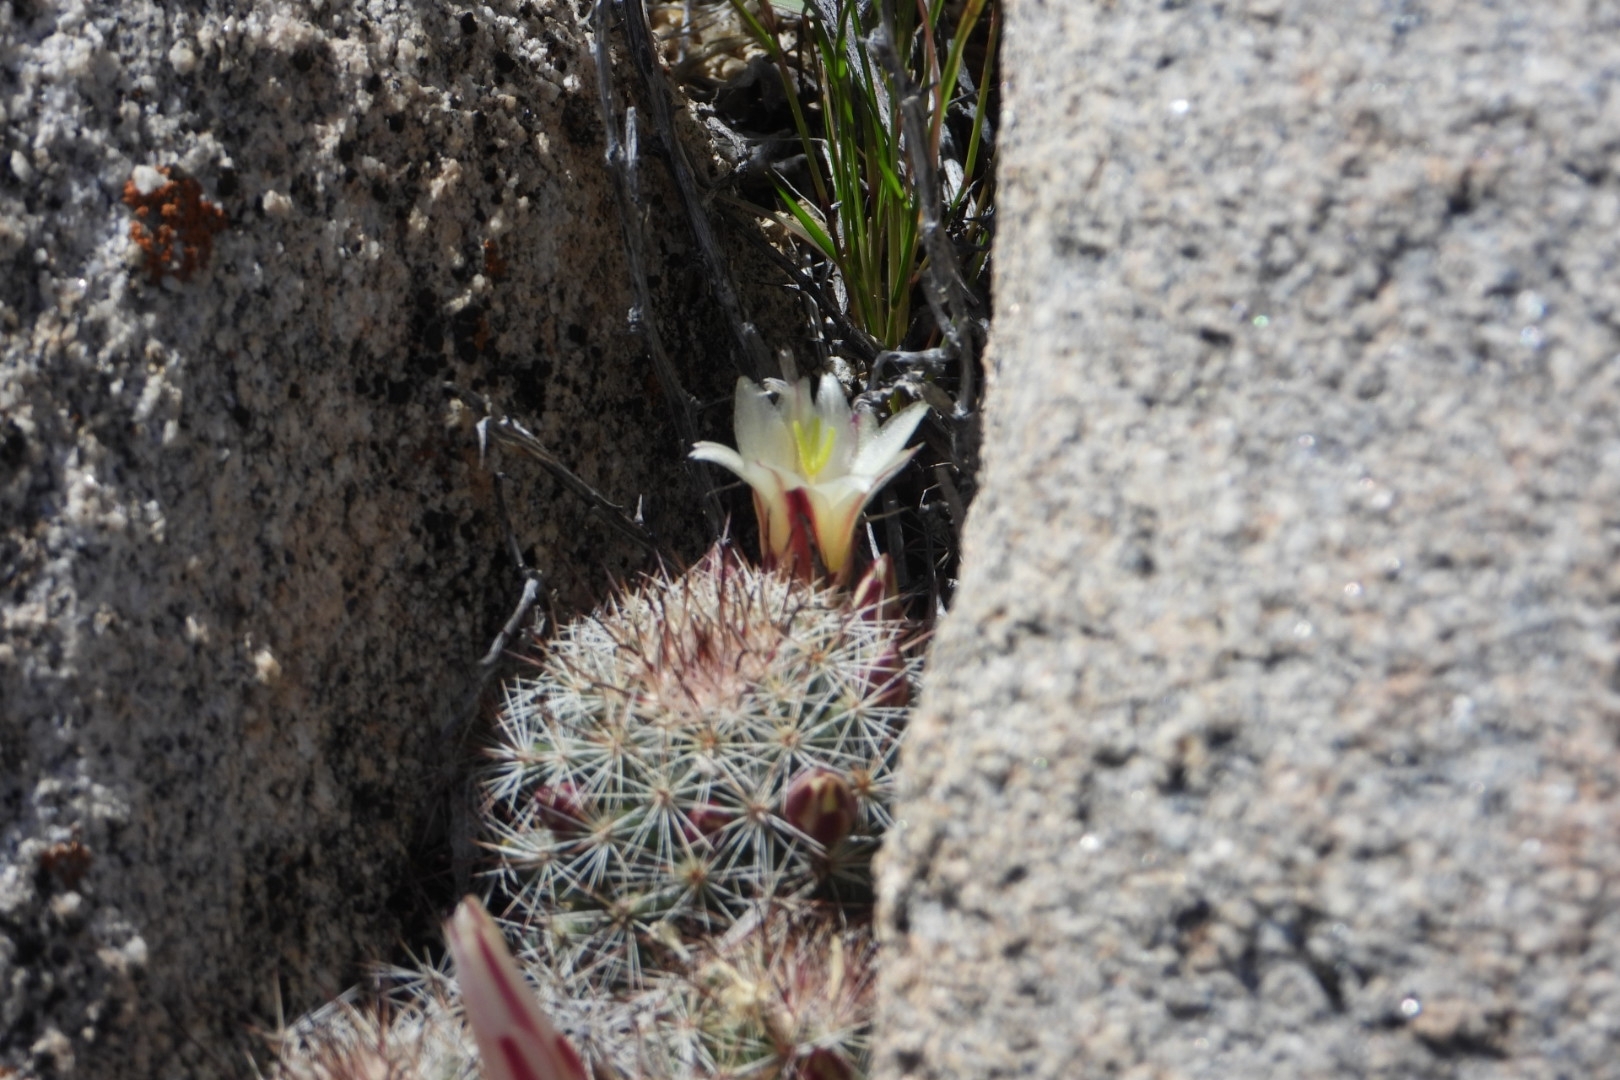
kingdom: Plantae
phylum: Tracheophyta
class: Magnoliopsida
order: Caryophyllales
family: Cactaceae
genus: Cochemiea
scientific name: Cochemiea dioica
